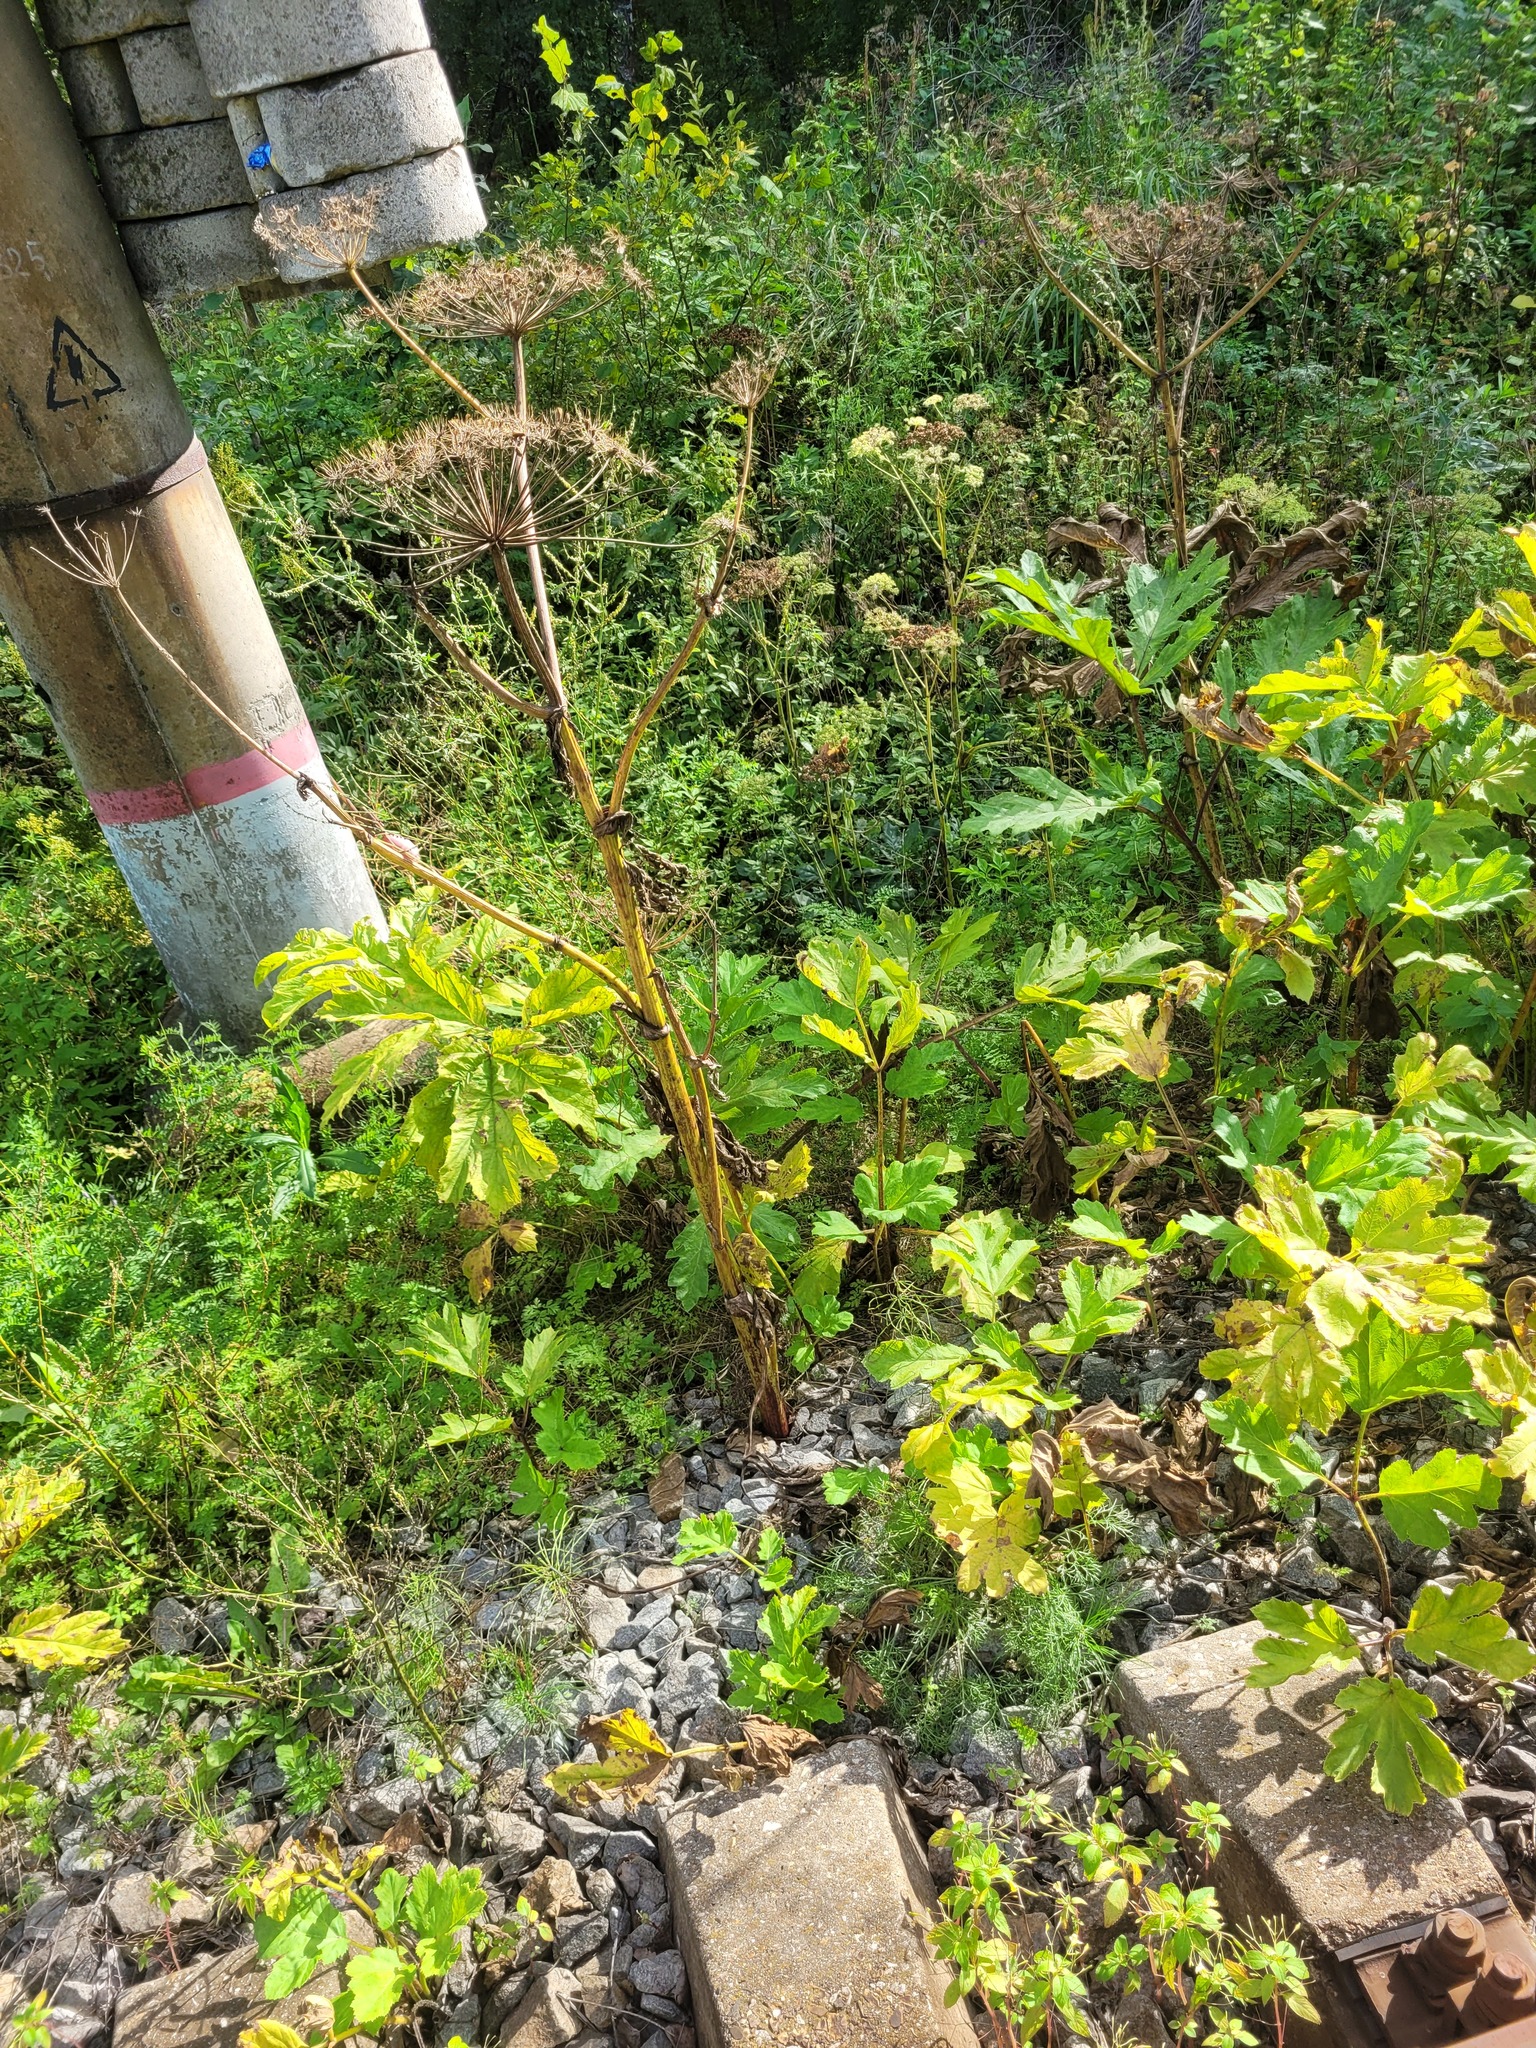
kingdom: Plantae
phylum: Tracheophyta
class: Magnoliopsida
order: Apiales
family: Apiaceae
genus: Heracleum
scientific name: Heracleum sosnowskyi
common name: Sosnowsky's hogweed
